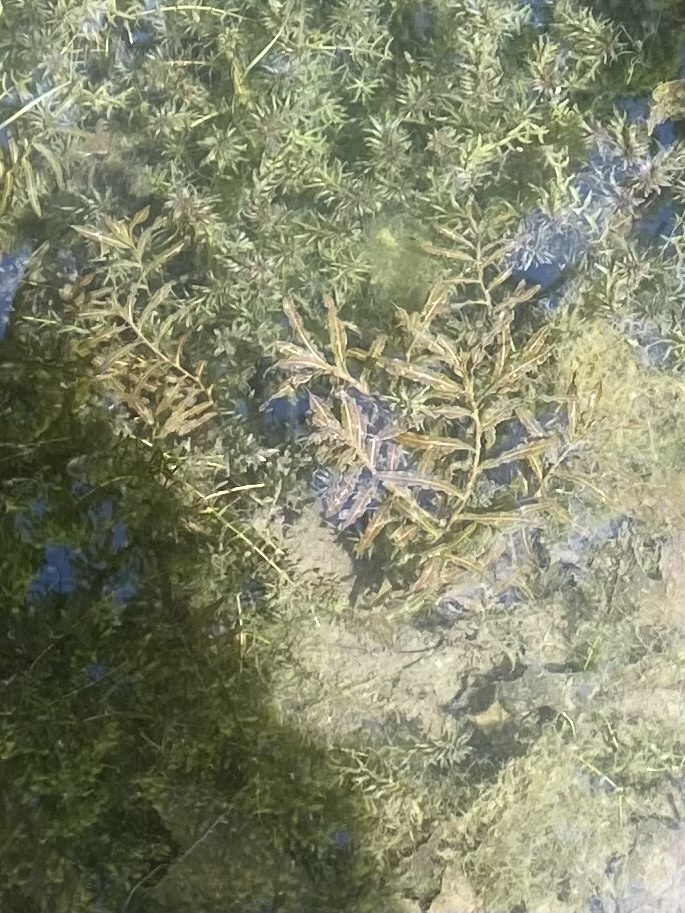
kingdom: Plantae
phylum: Tracheophyta
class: Liliopsida
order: Alismatales
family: Potamogetonaceae
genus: Potamogeton
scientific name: Potamogeton crispus
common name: Curled pondweed
